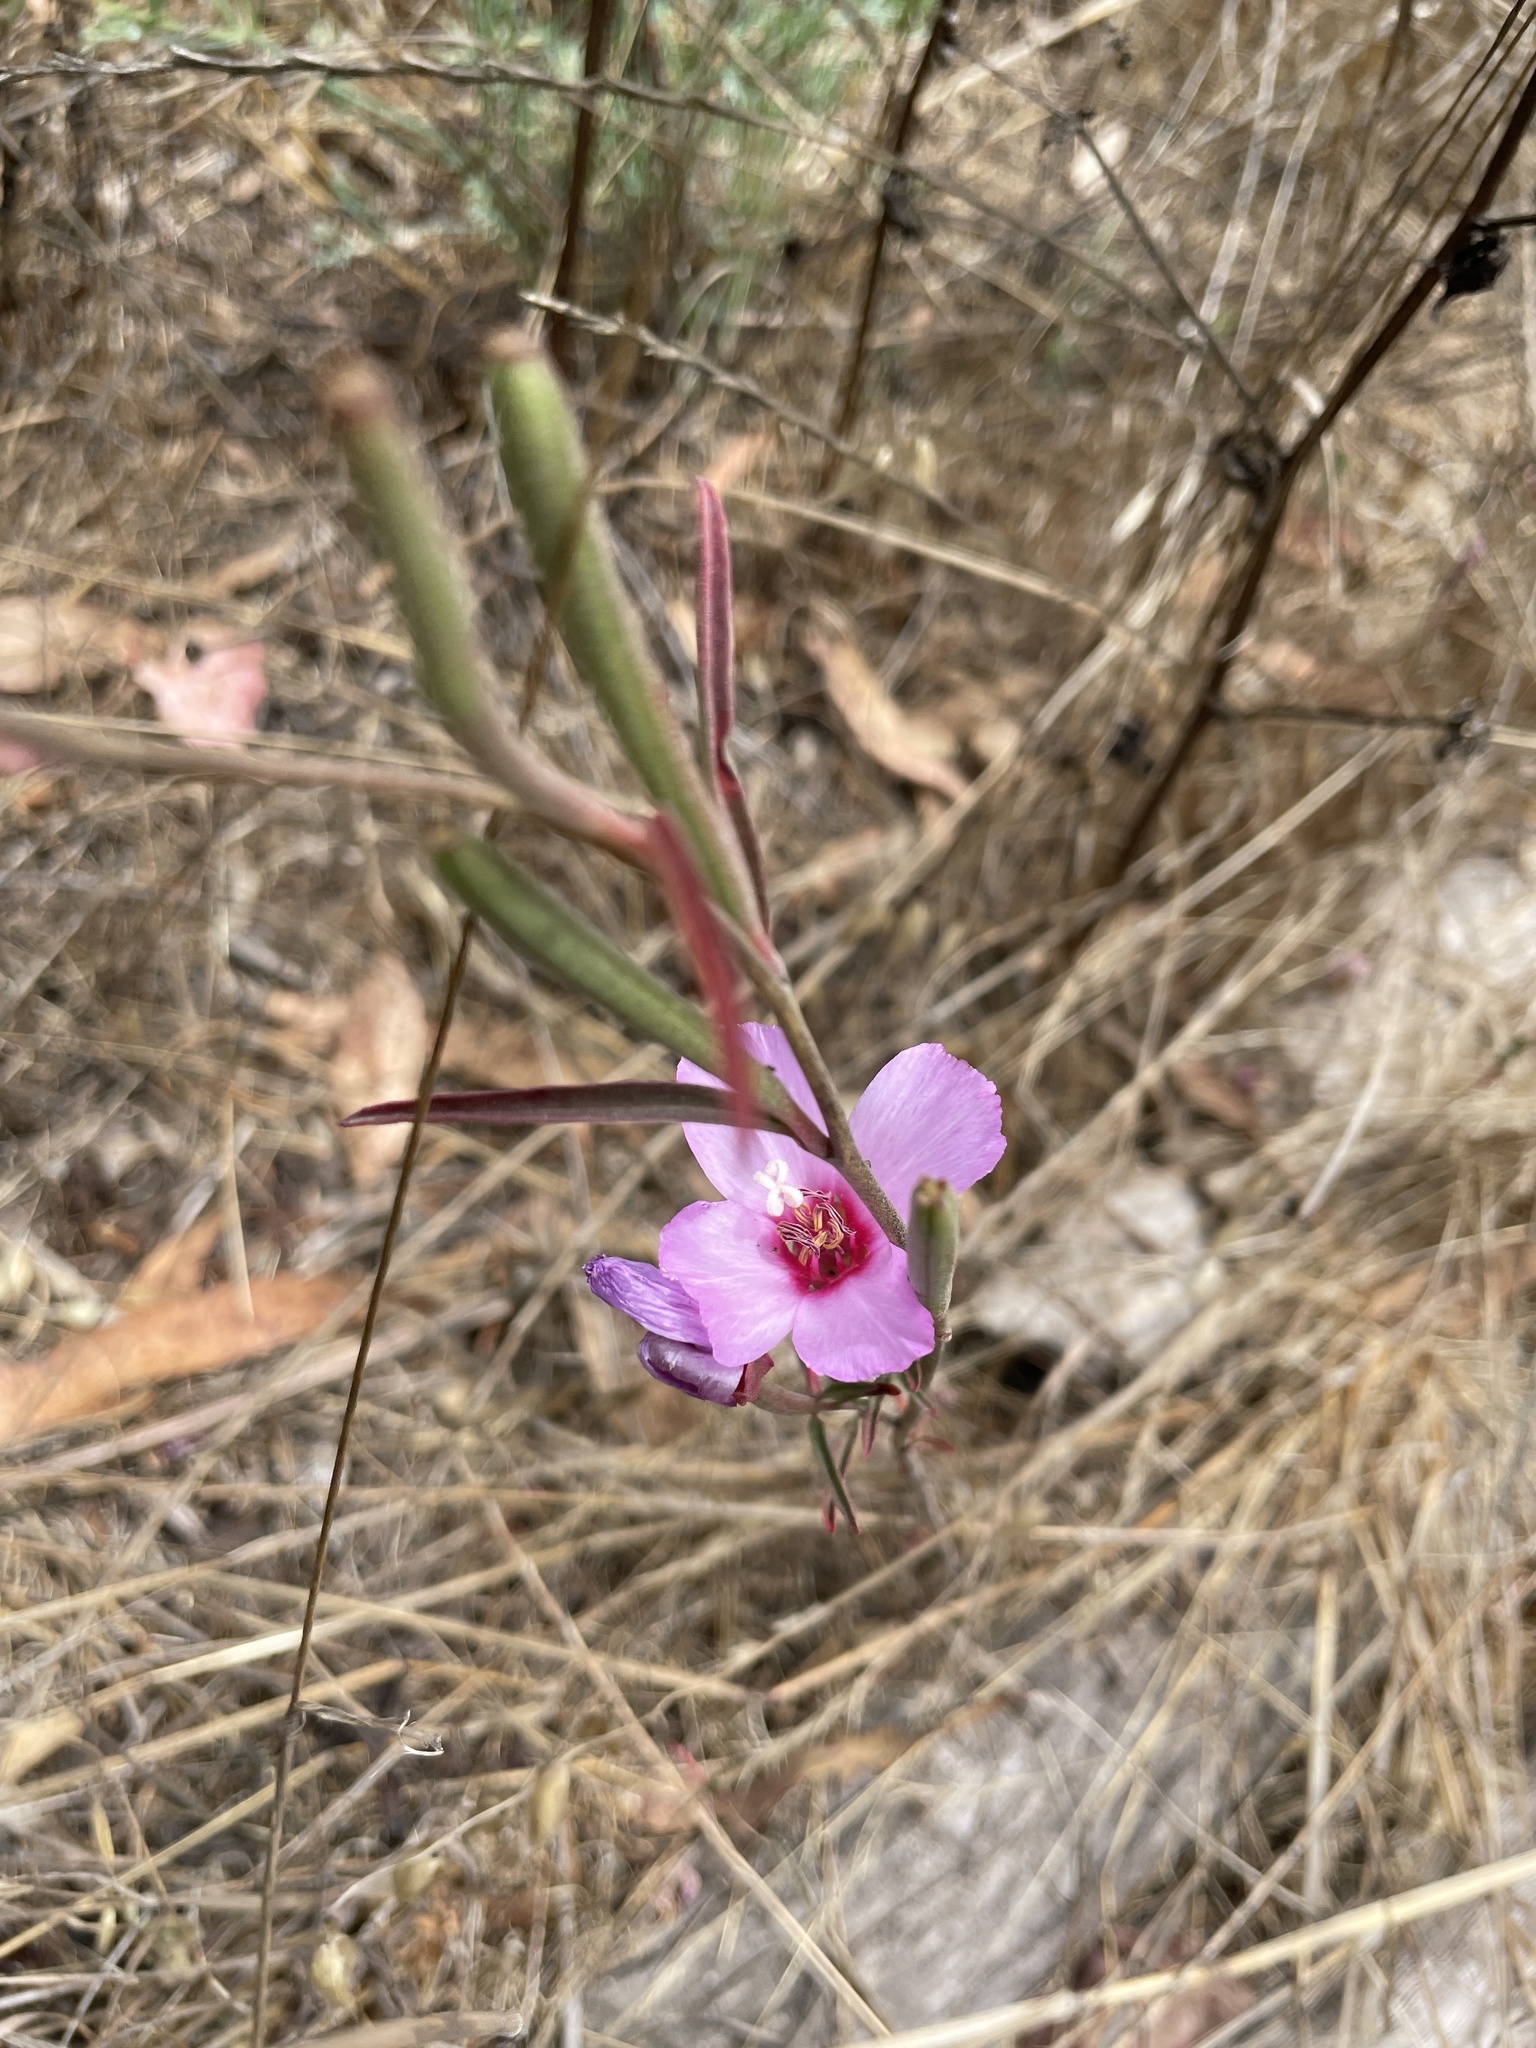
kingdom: Plantae
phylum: Tracheophyta
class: Magnoliopsida
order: Myrtales
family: Onagraceae
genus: Clarkia
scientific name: Clarkia rubicunda
